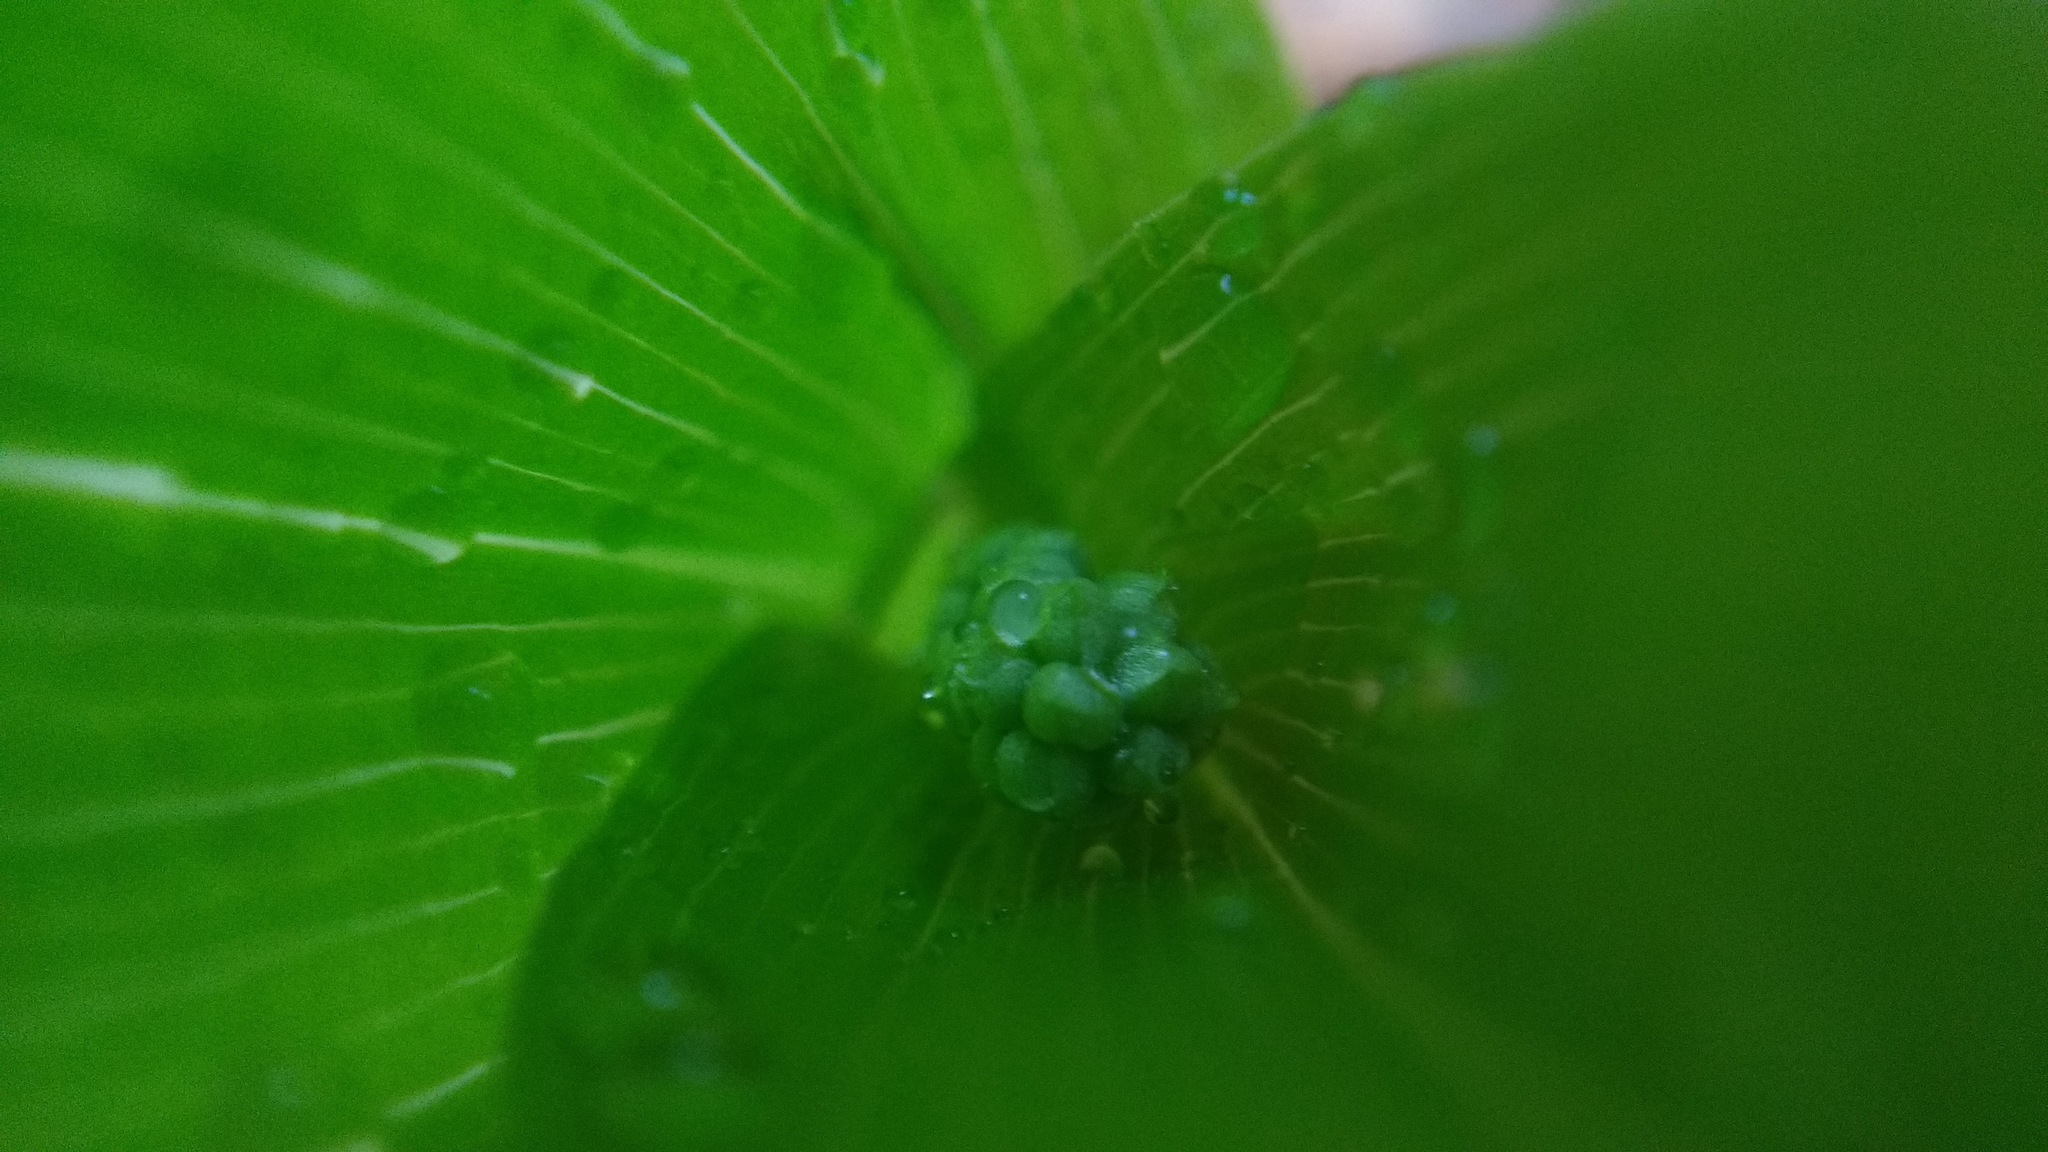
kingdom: Plantae
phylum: Tracheophyta
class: Liliopsida
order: Asparagales
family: Asparagaceae
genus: Maianthemum
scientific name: Maianthemum canadense
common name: False lily-of-the-valley
